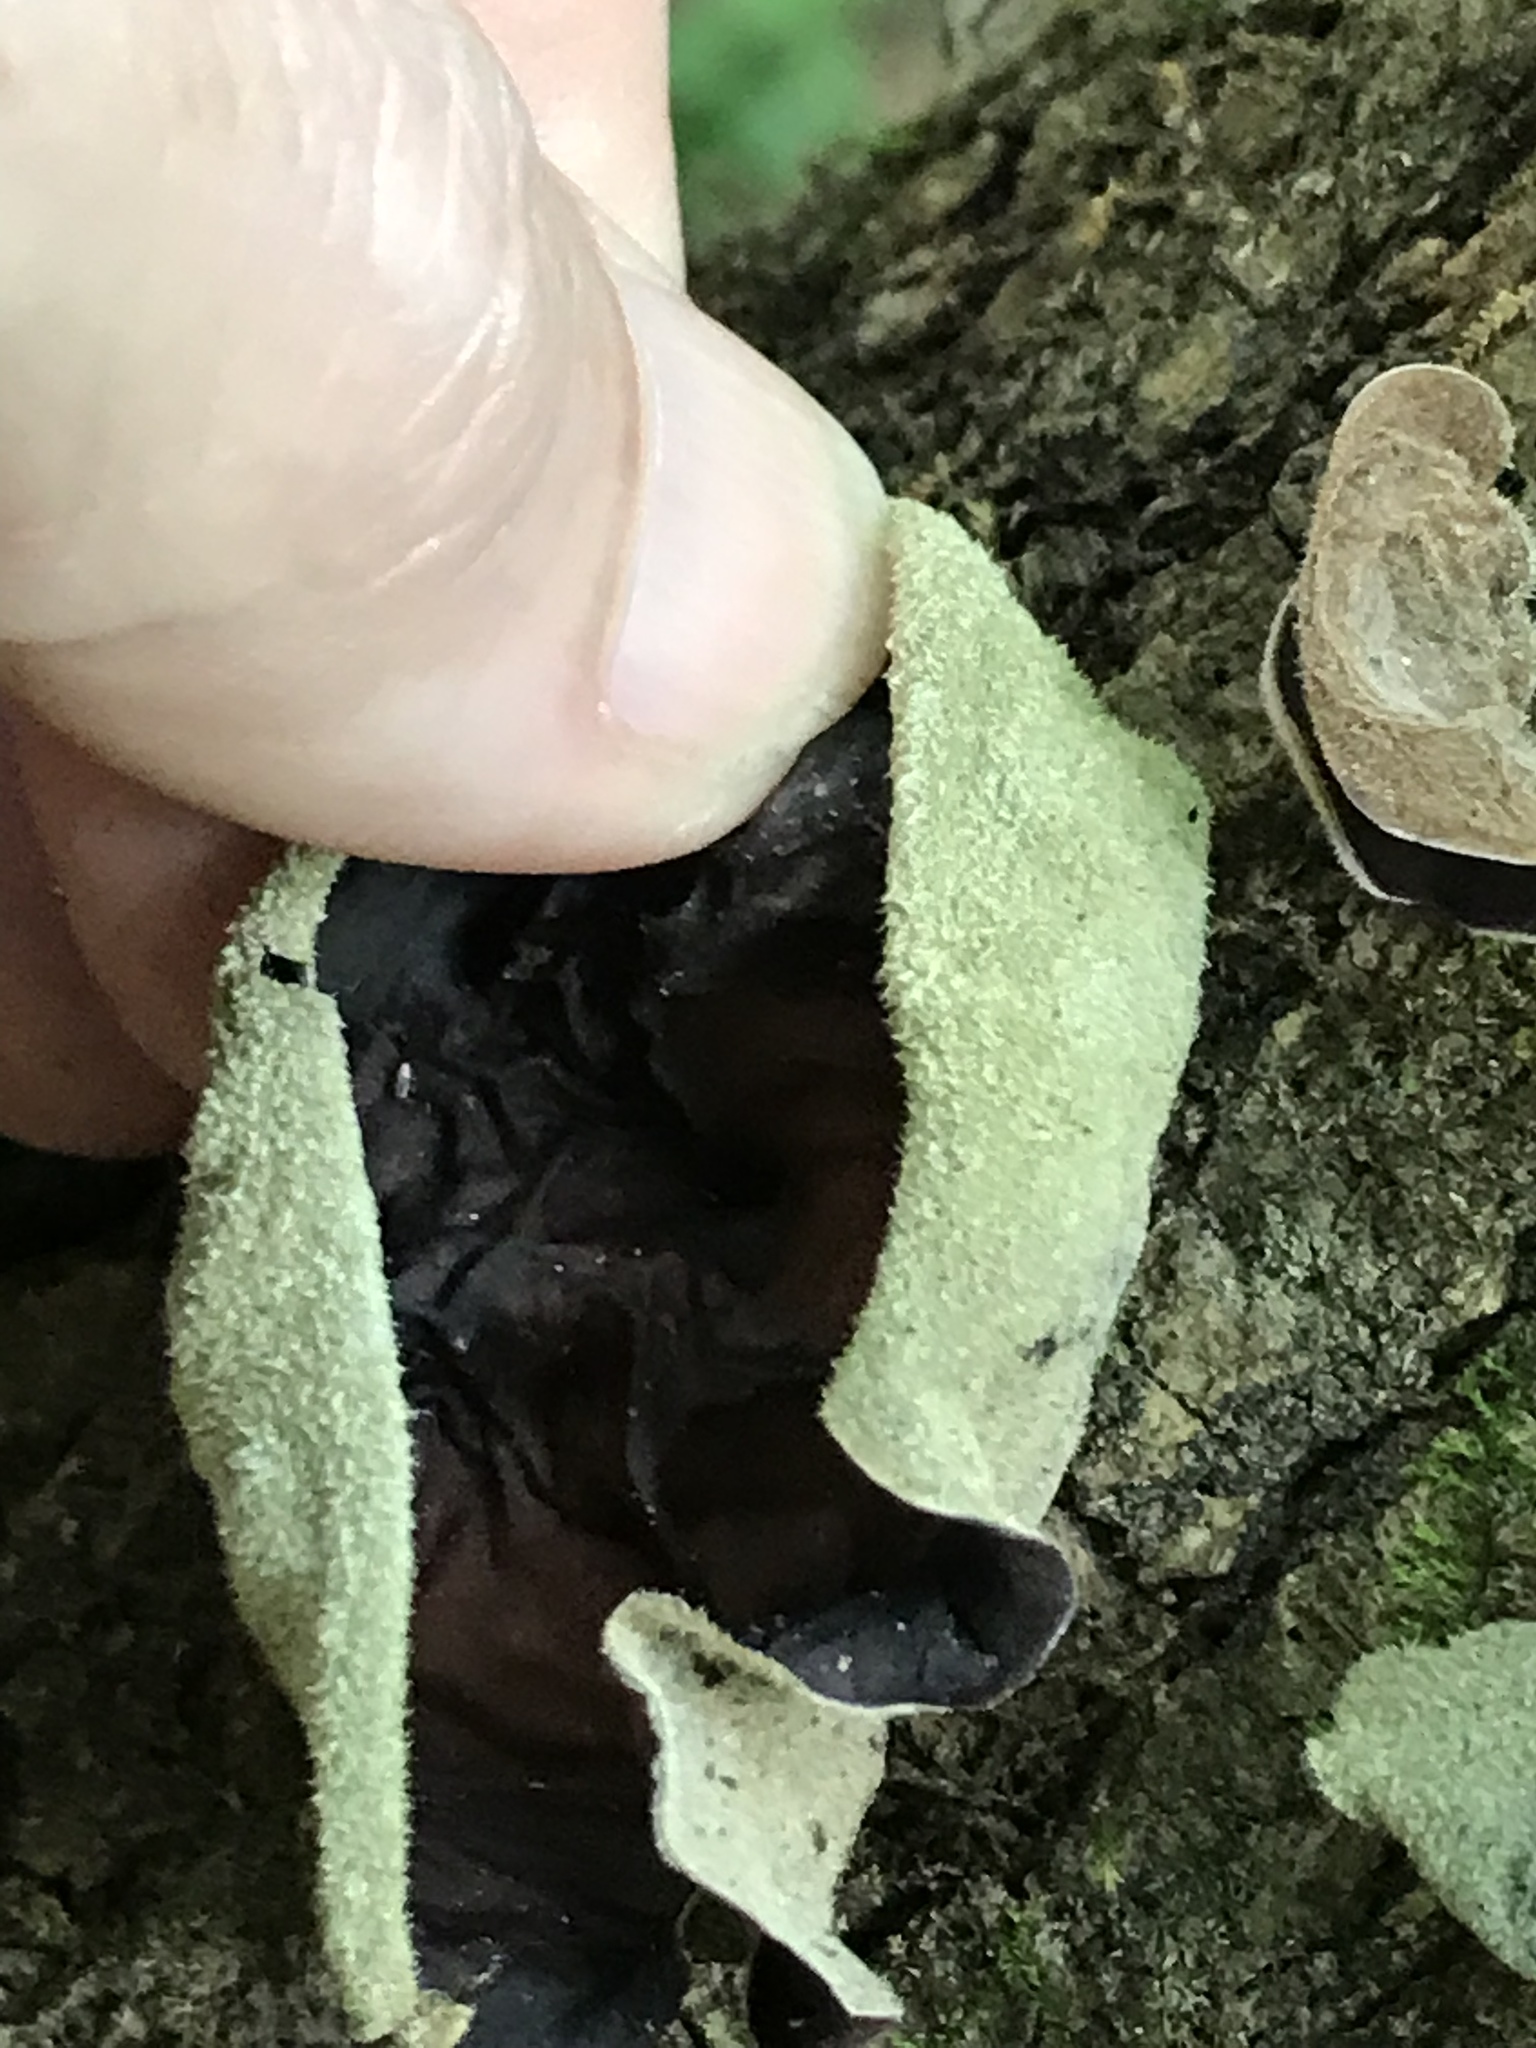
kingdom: Fungi
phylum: Basidiomycota
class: Agaricomycetes
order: Auriculariales
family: Auriculariaceae
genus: Auricularia
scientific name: Auricularia
